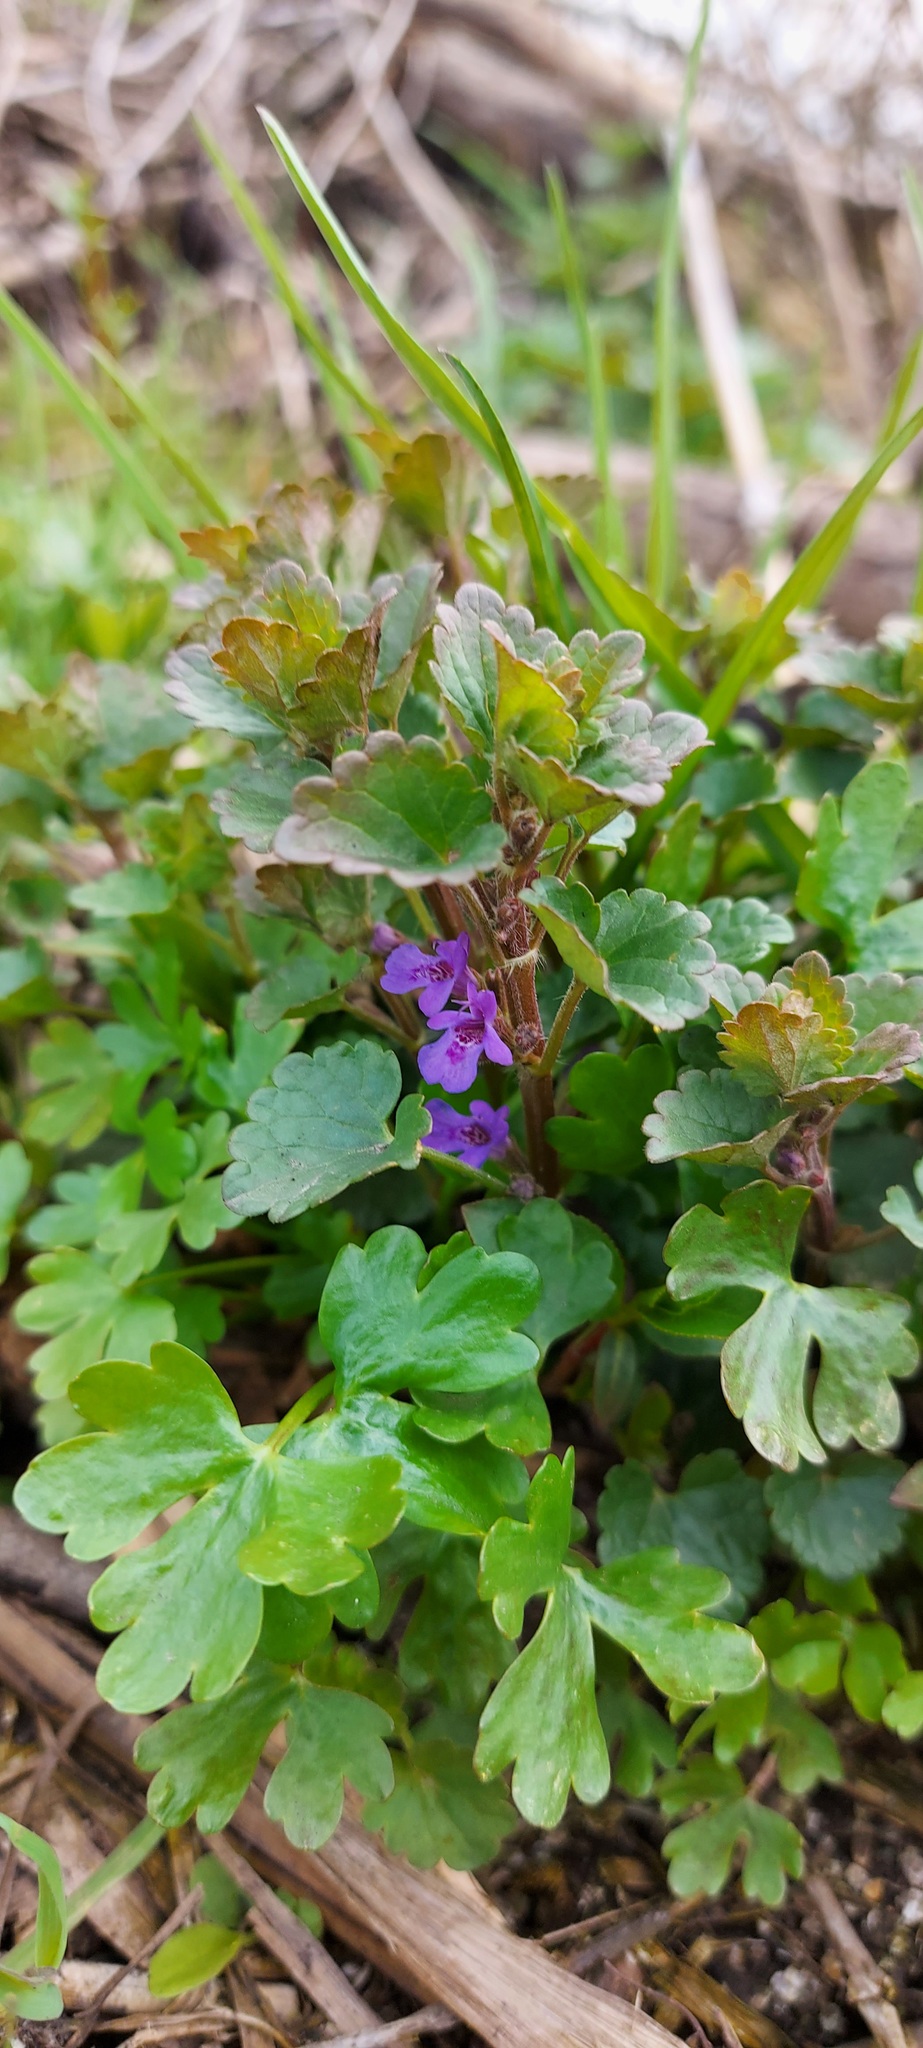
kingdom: Plantae
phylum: Tracheophyta
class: Magnoliopsida
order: Lamiales
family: Lamiaceae
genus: Glechoma
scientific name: Glechoma hederacea
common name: Ground ivy
